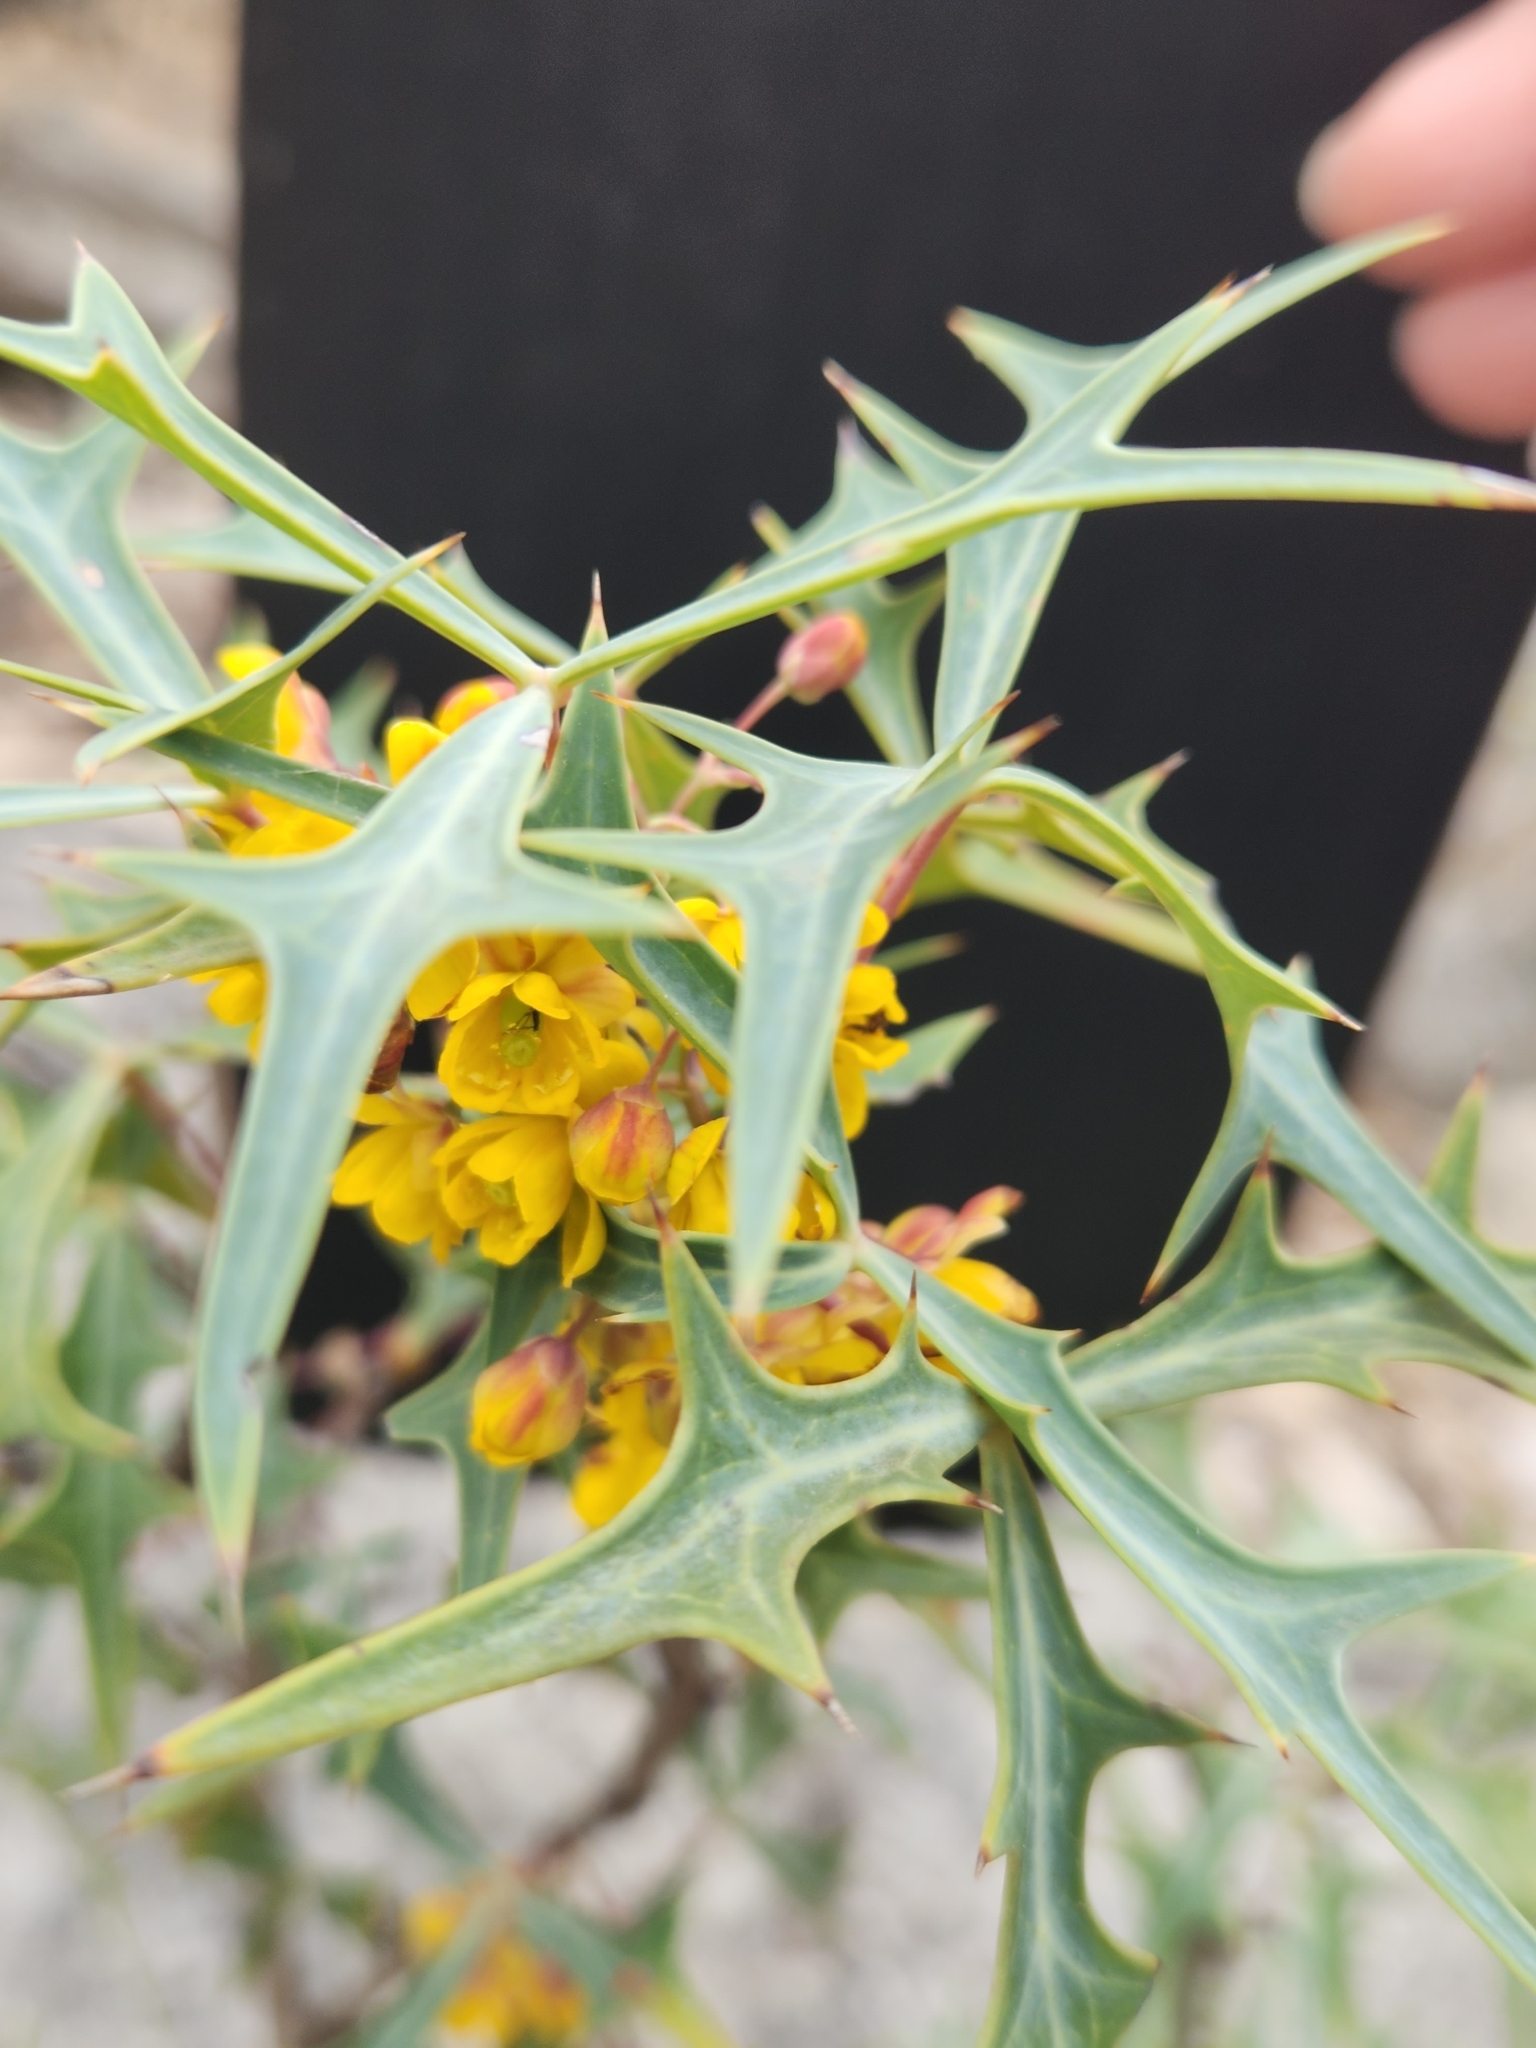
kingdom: Plantae
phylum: Tracheophyta
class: Magnoliopsida
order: Ranunculales
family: Berberidaceae
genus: Alloberberis
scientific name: Alloberberis trifoliolata
